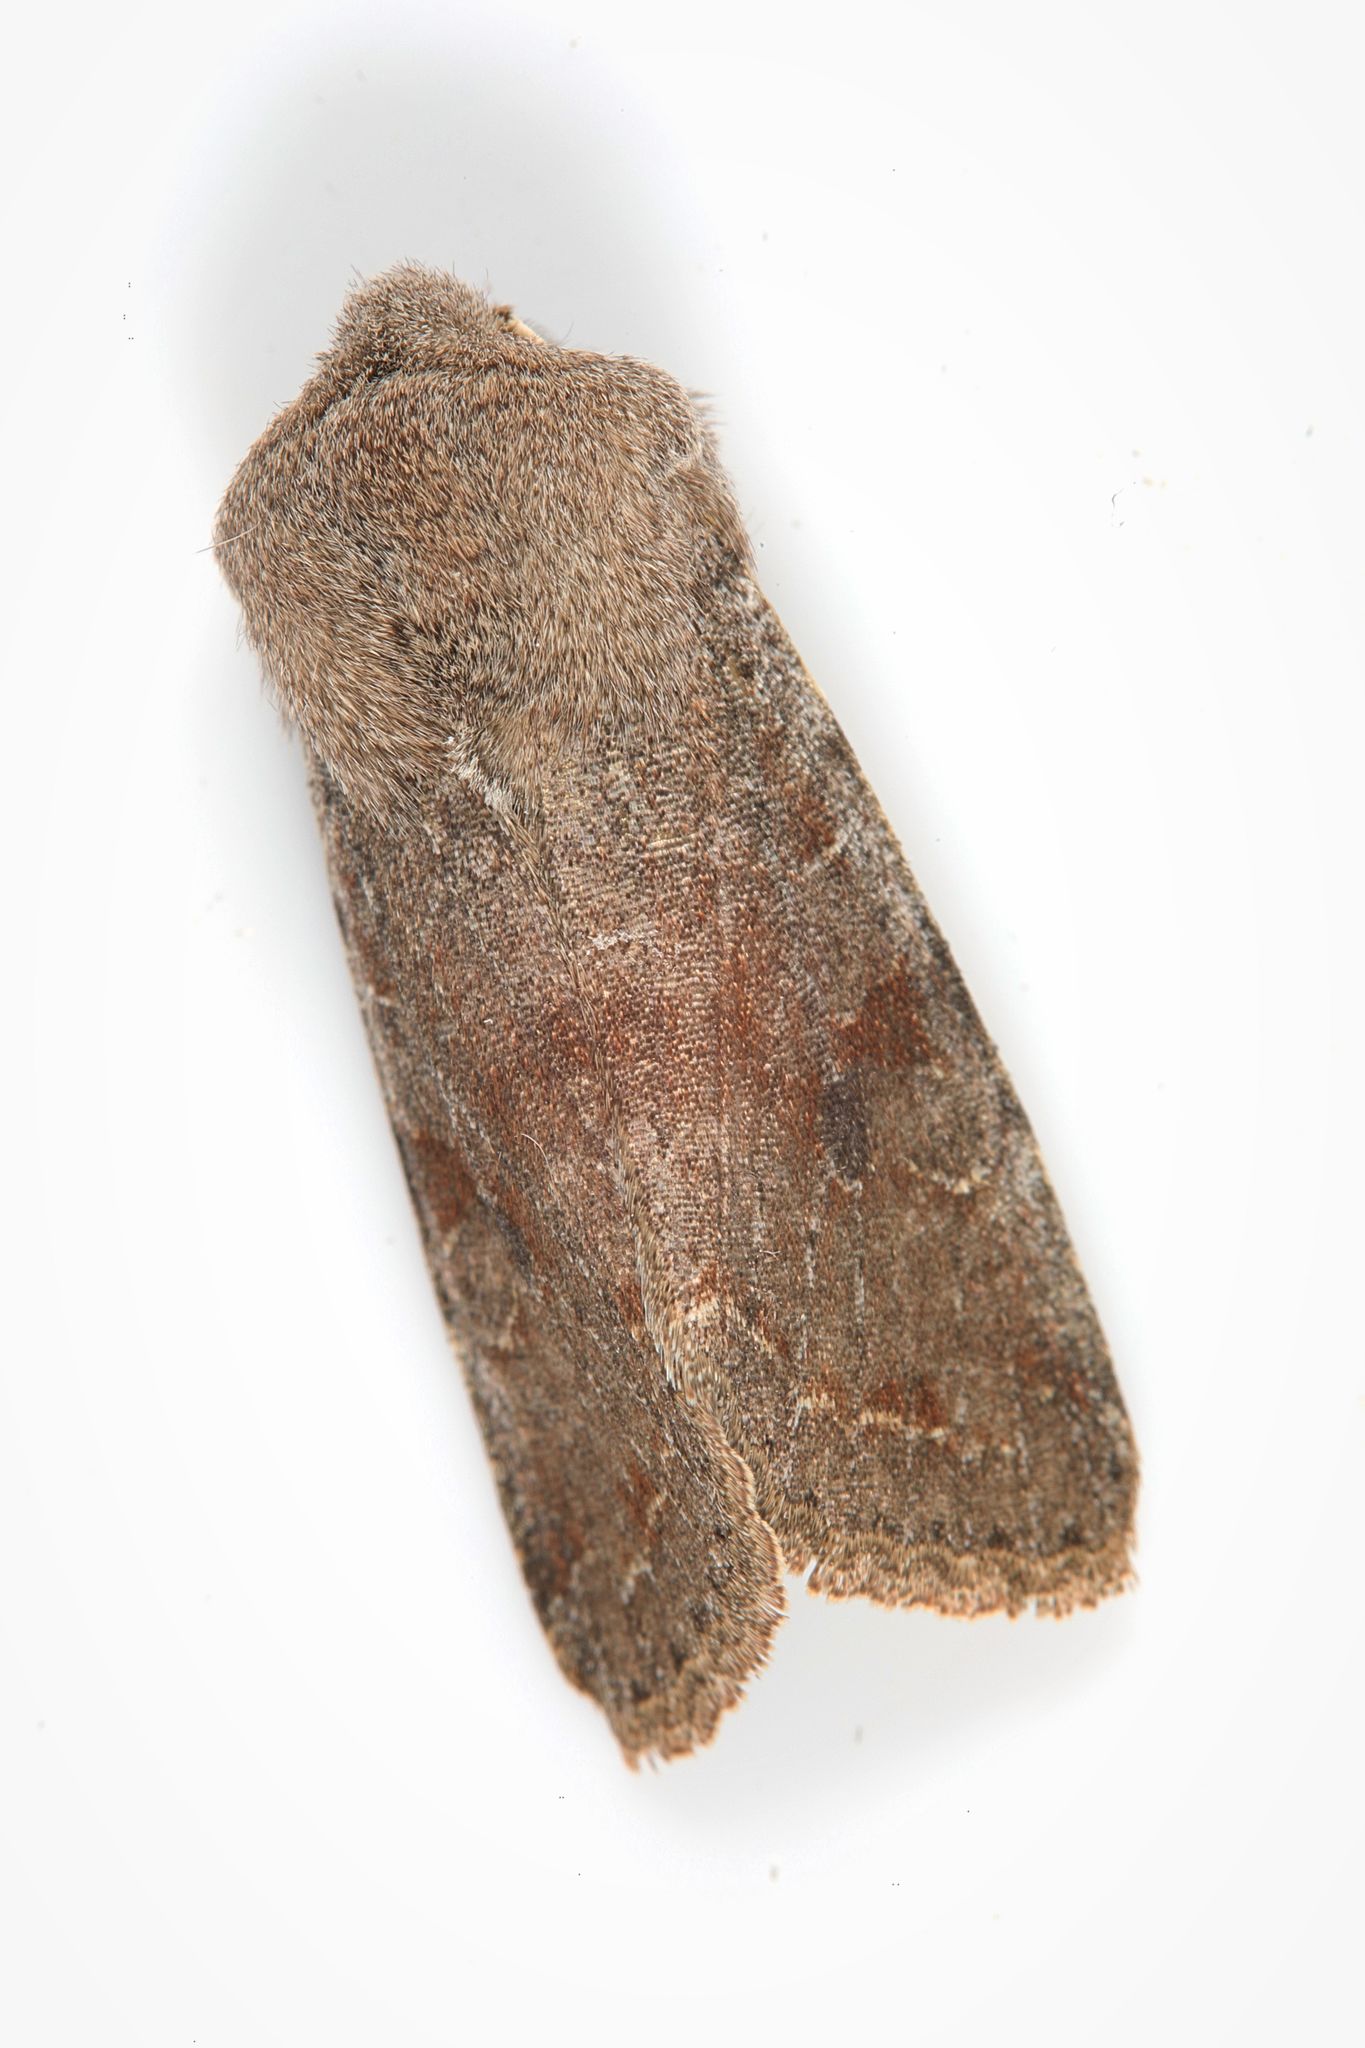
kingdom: Animalia
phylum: Arthropoda
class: Insecta
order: Lepidoptera
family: Noctuidae
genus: Orthosia
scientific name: Orthosia incerta
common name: Clouded drab
